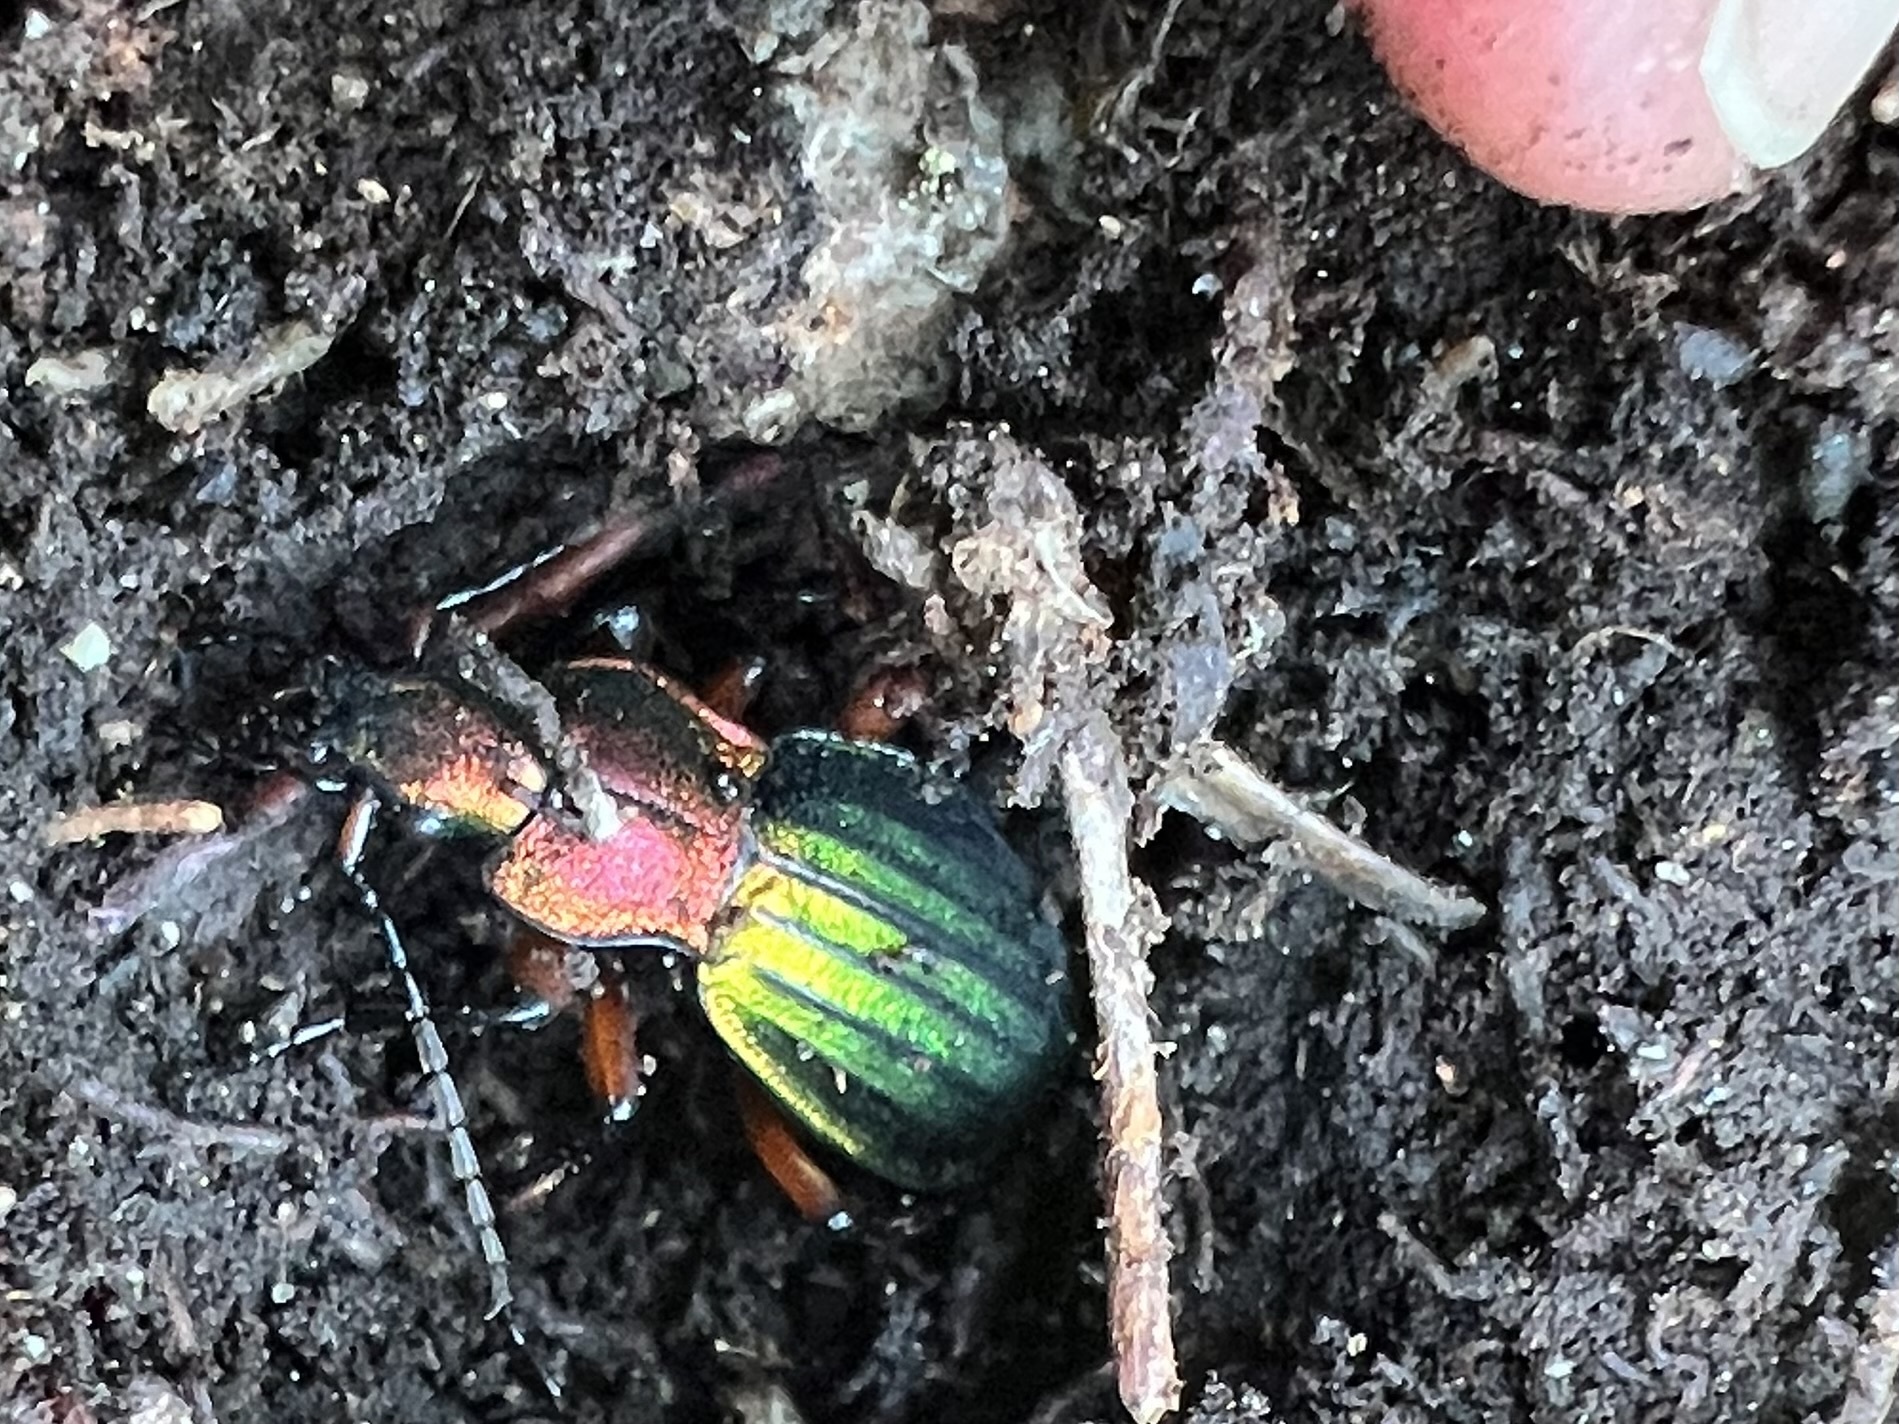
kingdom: Animalia
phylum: Arthropoda
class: Insecta
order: Coleoptera
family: Carabidae
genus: Carabus
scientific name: Carabus auronitens
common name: Carabus auronitens
